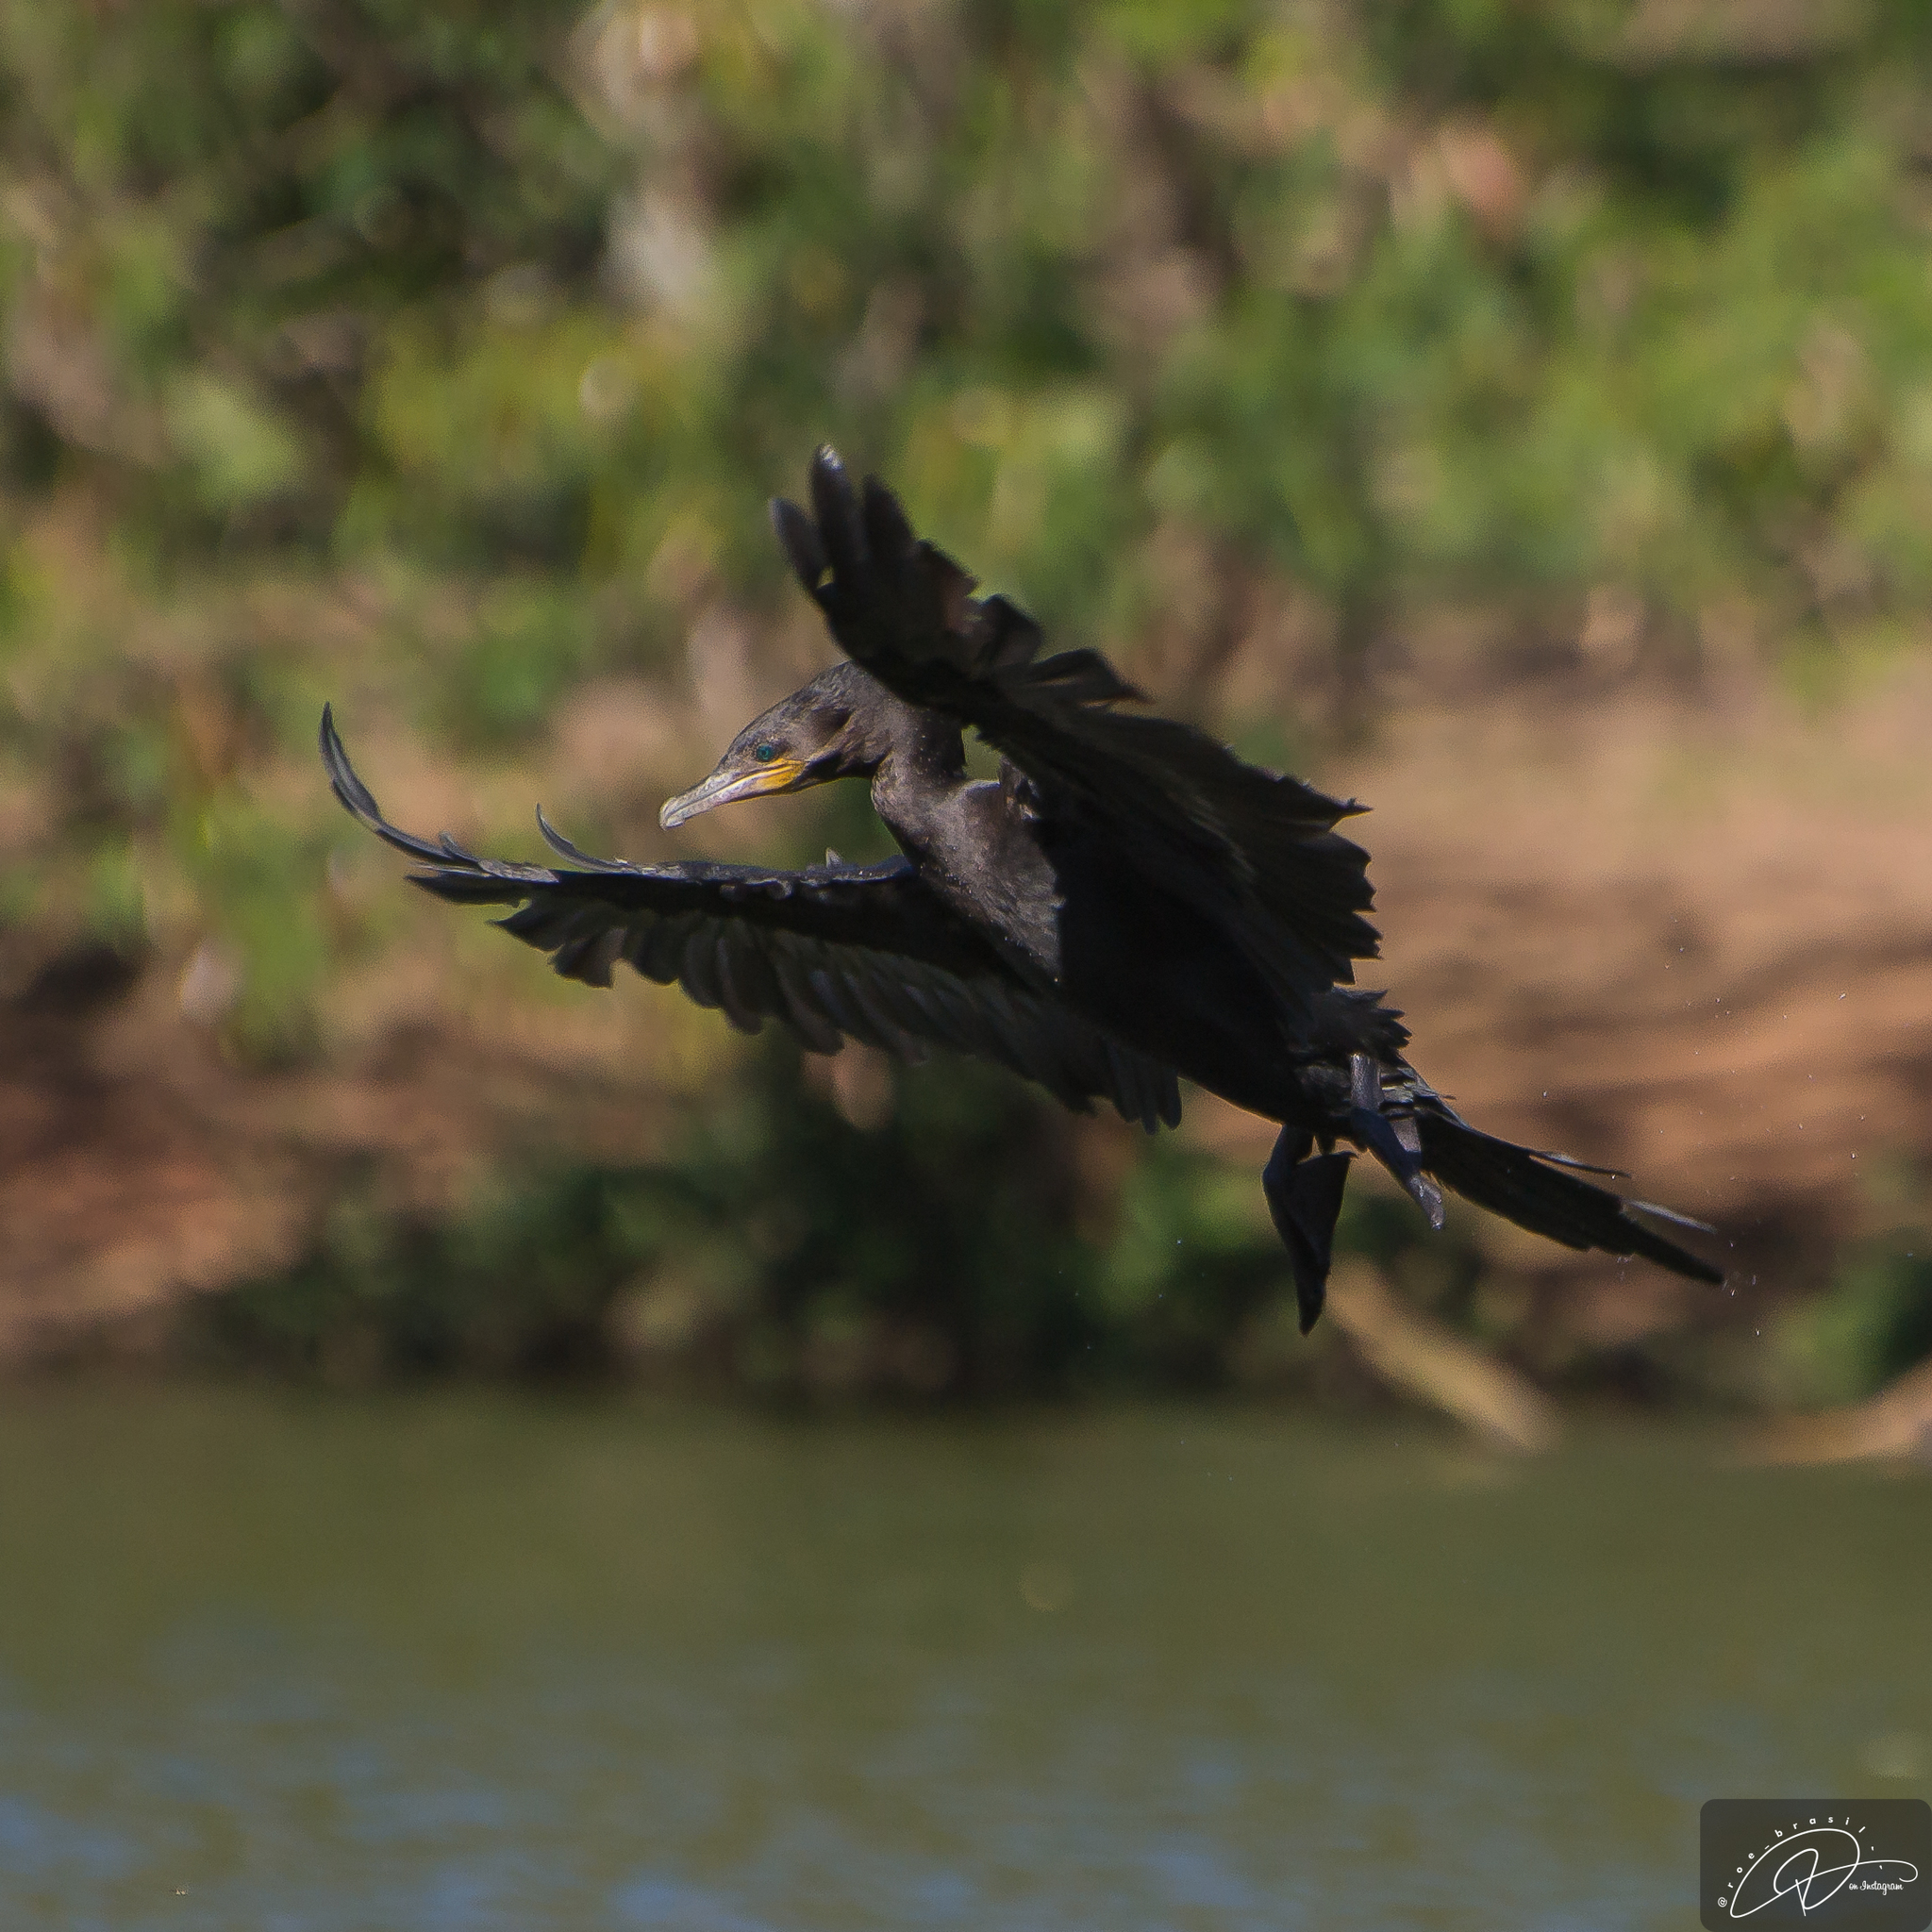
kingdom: Animalia
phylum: Chordata
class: Aves
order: Suliformes
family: Phalacrocoracidae
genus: Phalacrocorax
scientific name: Phalacrocorax brasilianus
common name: Neotropic cormorant
